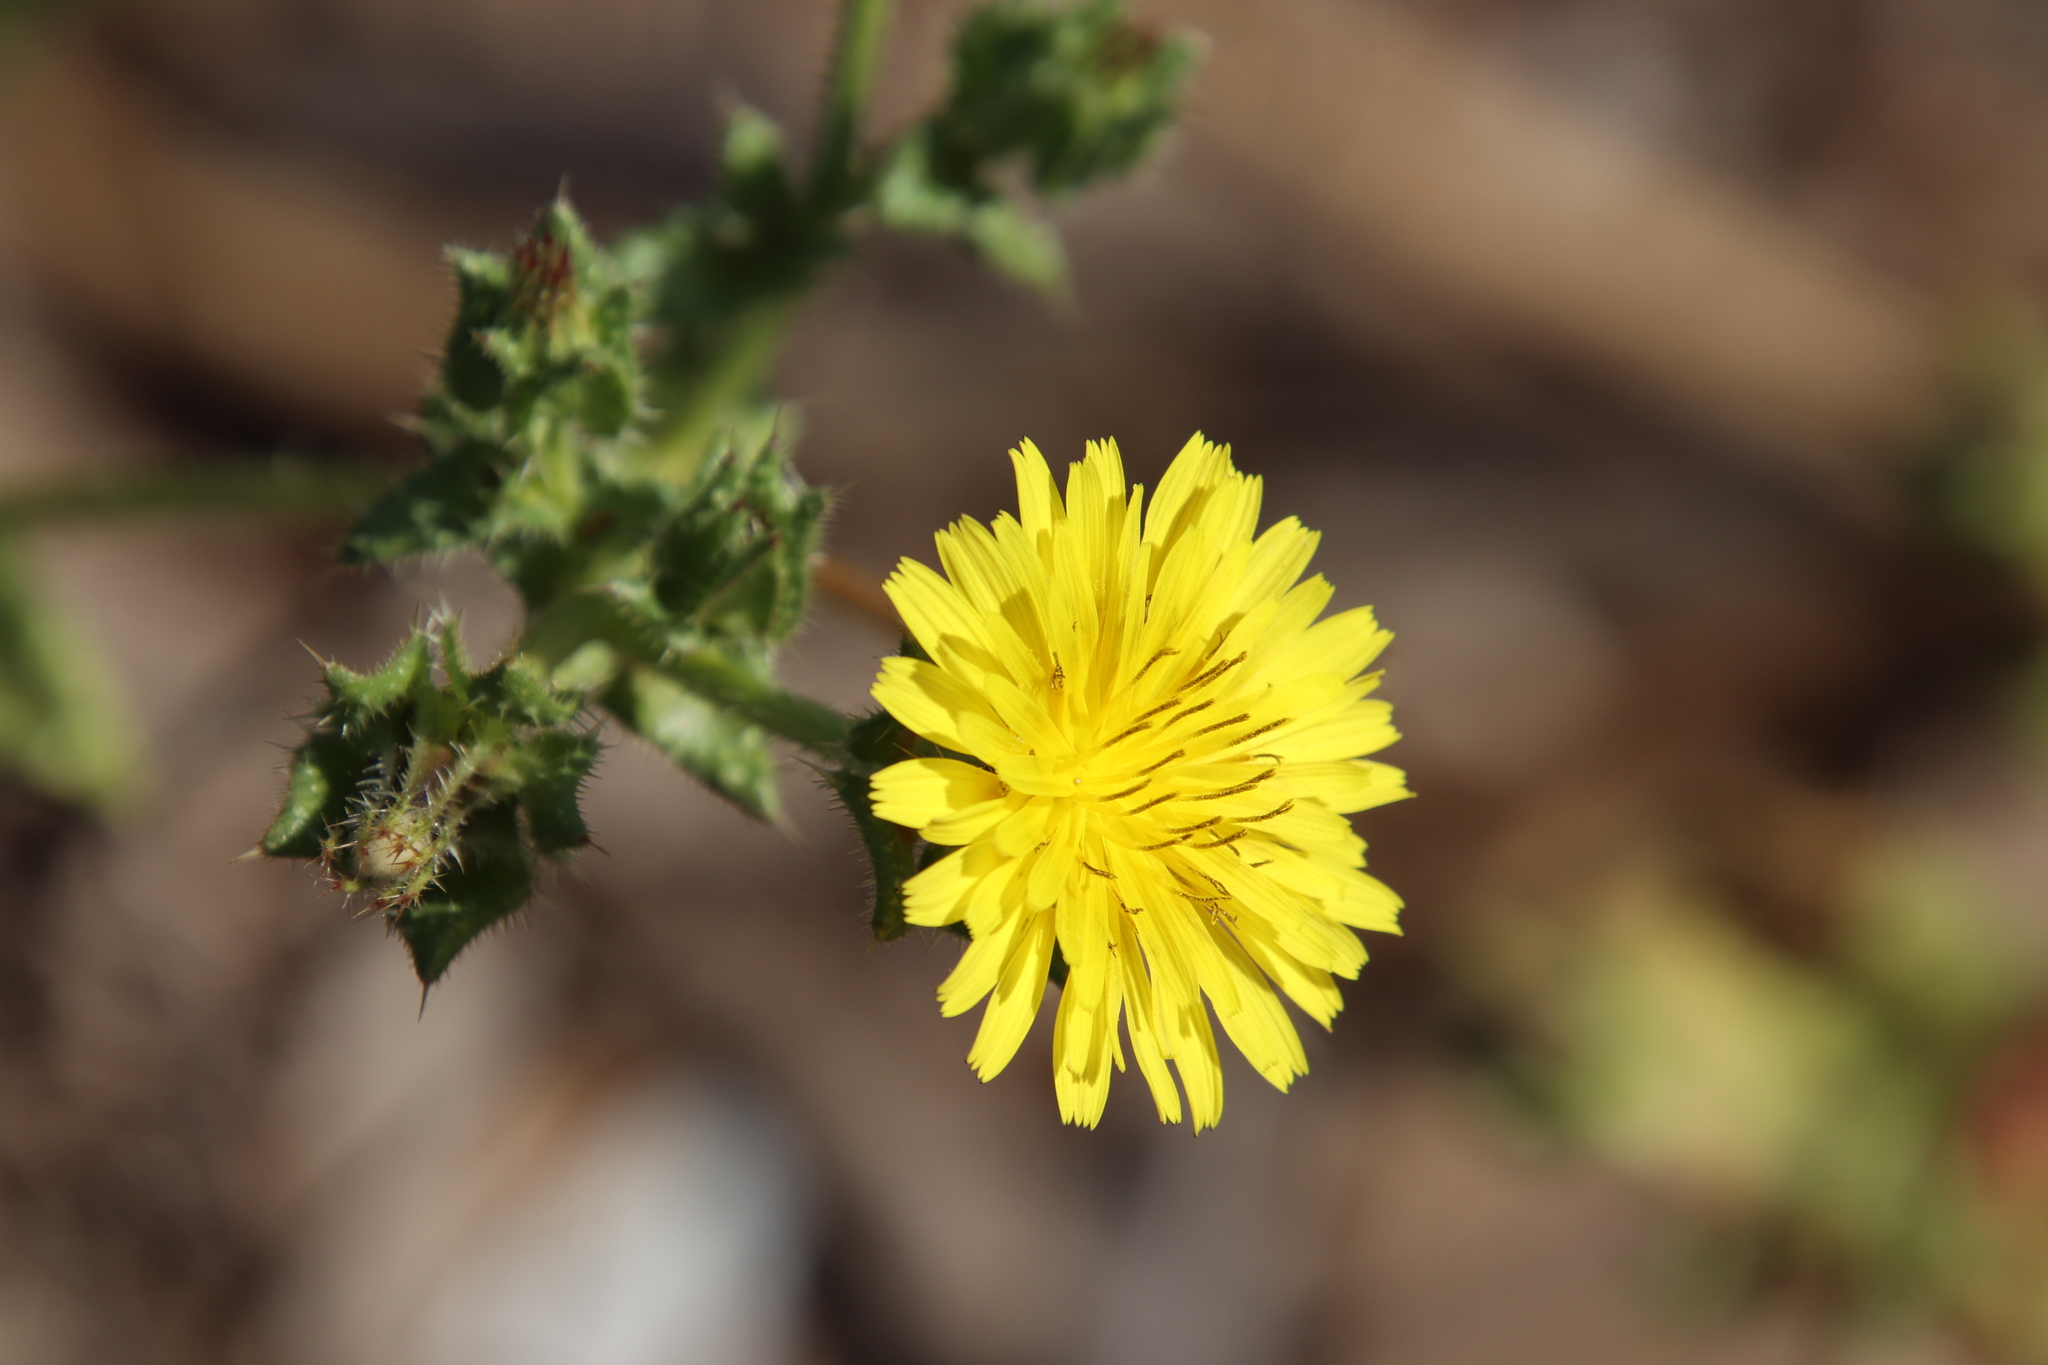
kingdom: Plantae
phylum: Tracheophyta
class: Magnoliopsida
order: Asterales
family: Asteraceae
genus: Helminthotheca
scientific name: Helminthotheca echioides
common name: Ox-tongue
